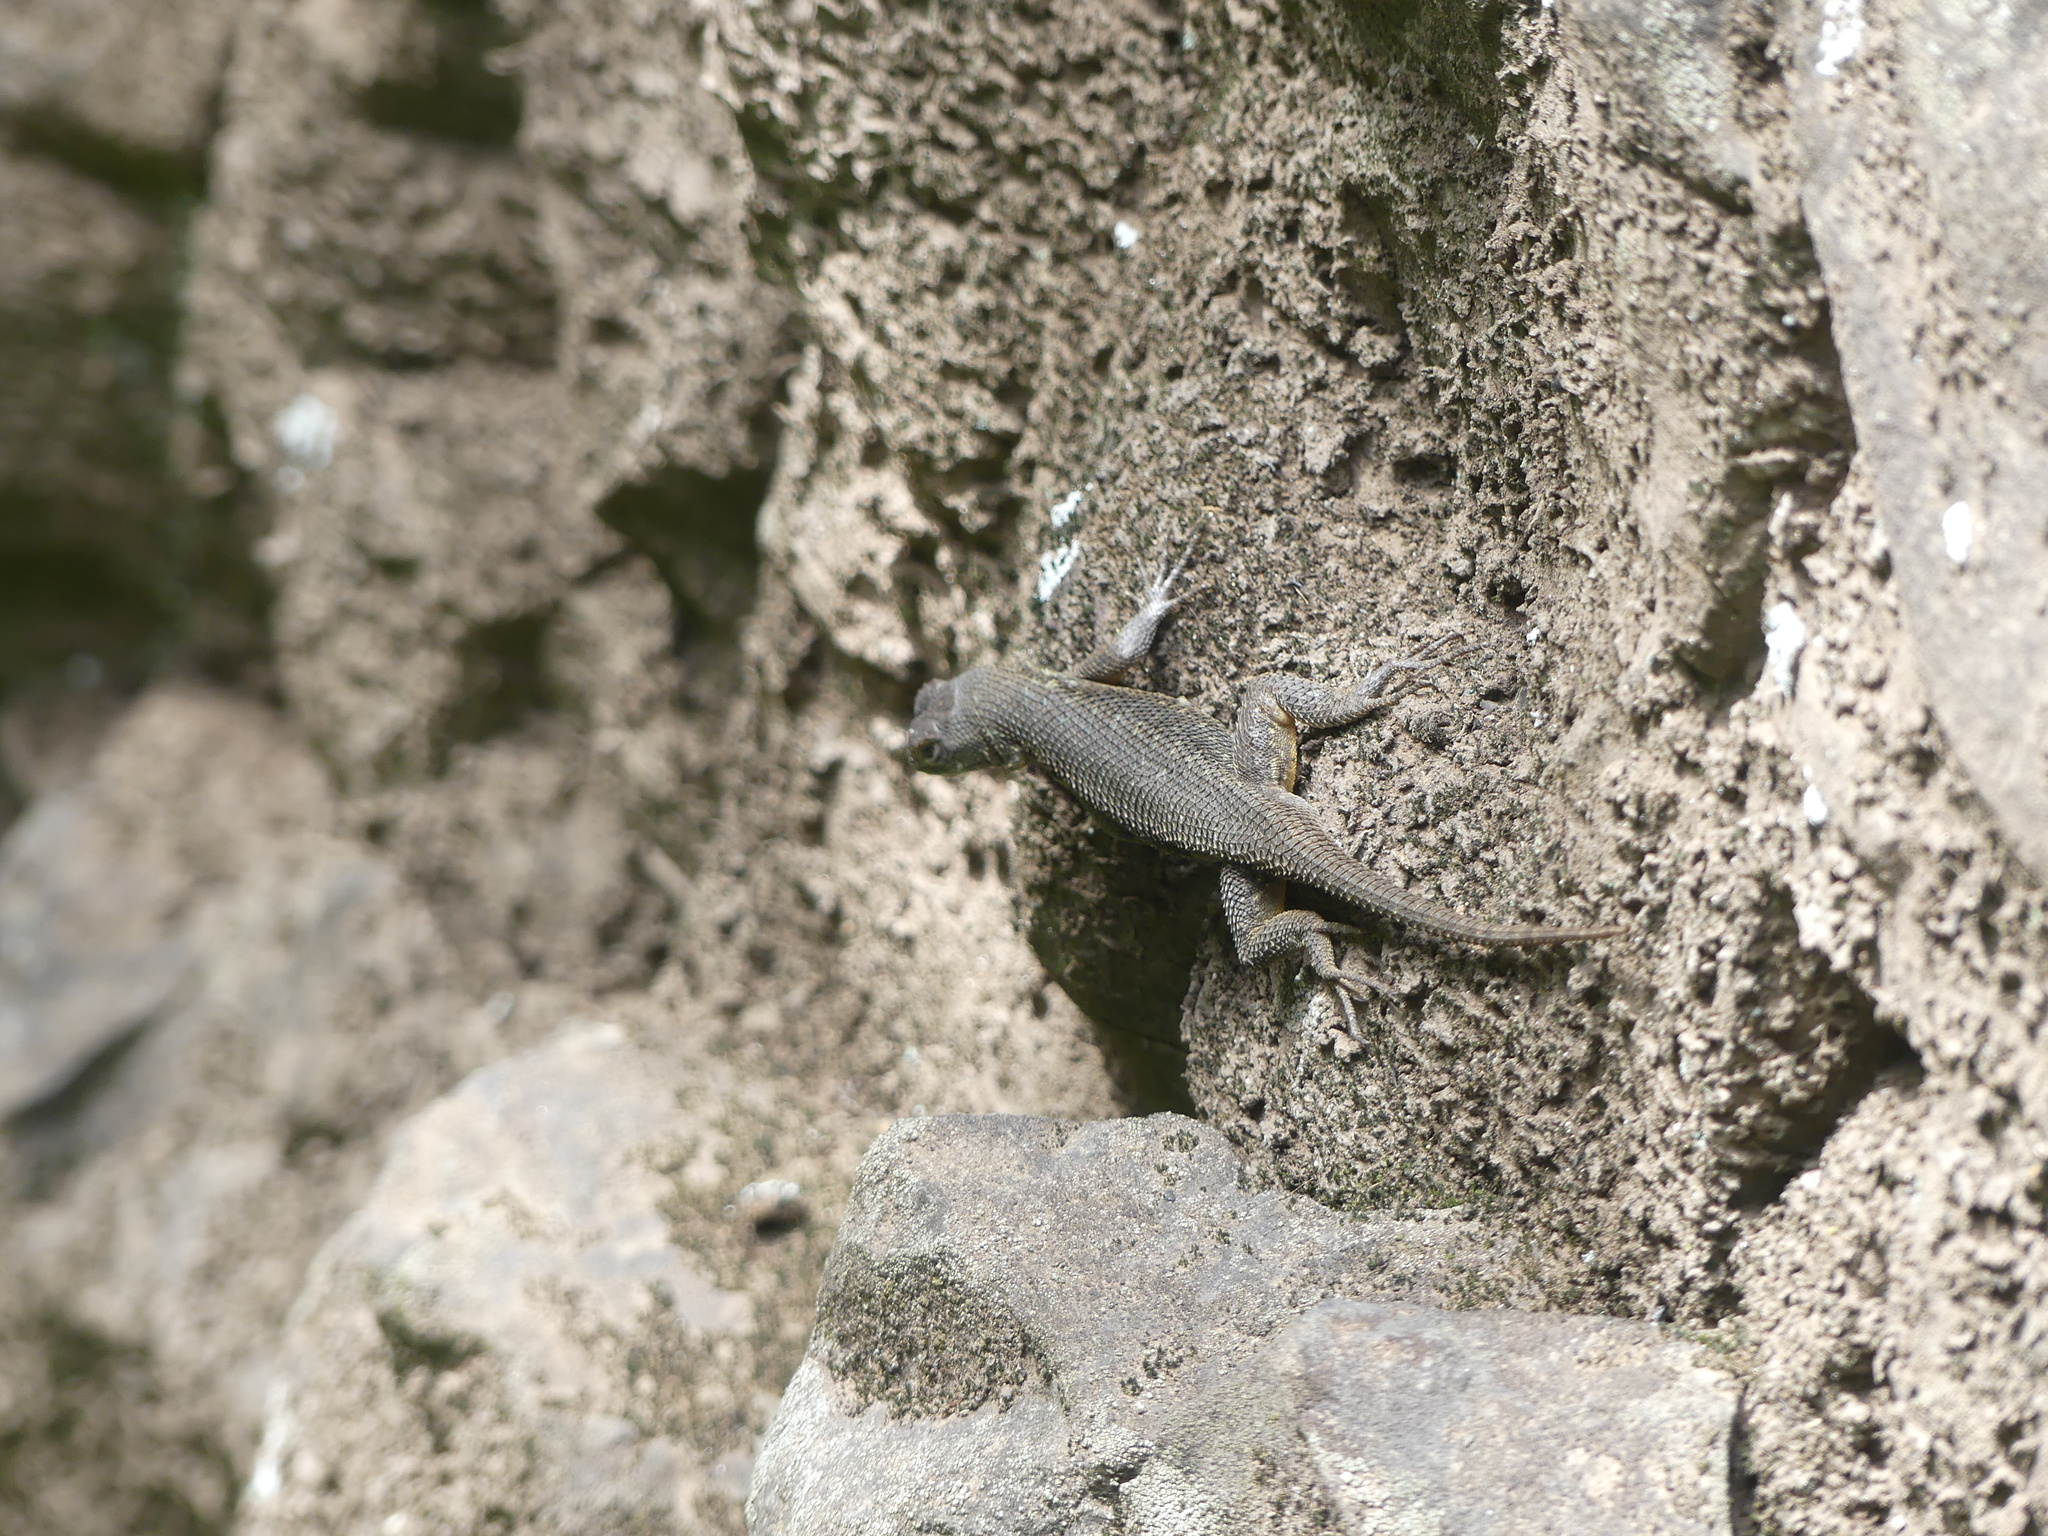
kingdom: Animalia
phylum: Chordata
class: Squamata
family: Phrynosomatidae
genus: Sceloporus
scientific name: Sceloporus occidentalis
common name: Western fence lizard
